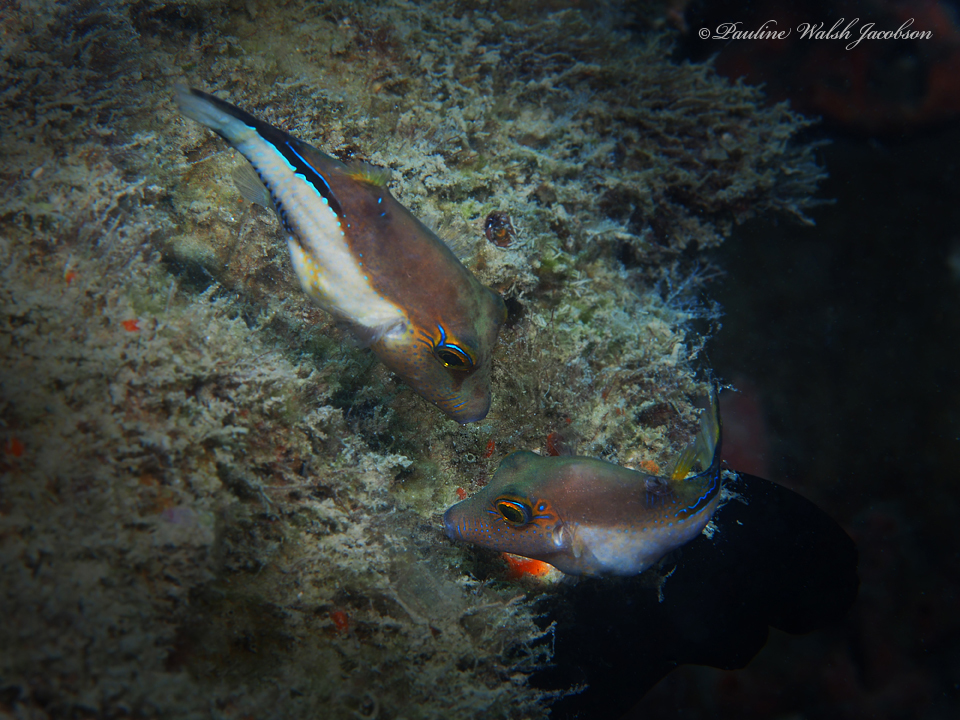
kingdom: Animalia
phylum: Chordata
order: Tetraodontiformes
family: Tetraodontidae
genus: Canthigaster
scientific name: Canthigaster rostrata
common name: Caribbean sharpnose-puffer
